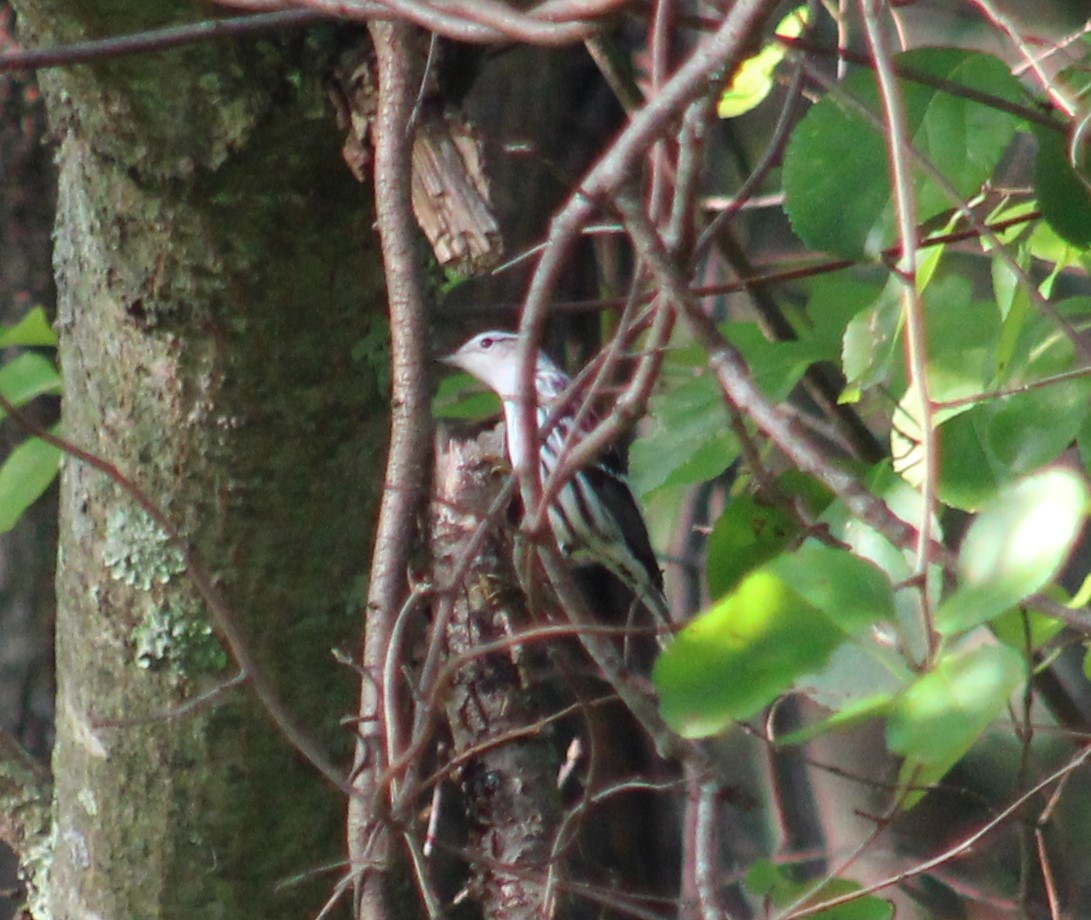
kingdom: Animalia
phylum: Chordata
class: Aves
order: Passeriformes
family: Parulidae
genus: Mniotilta
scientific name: Mniotilta varia
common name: Black-and-white warbler
